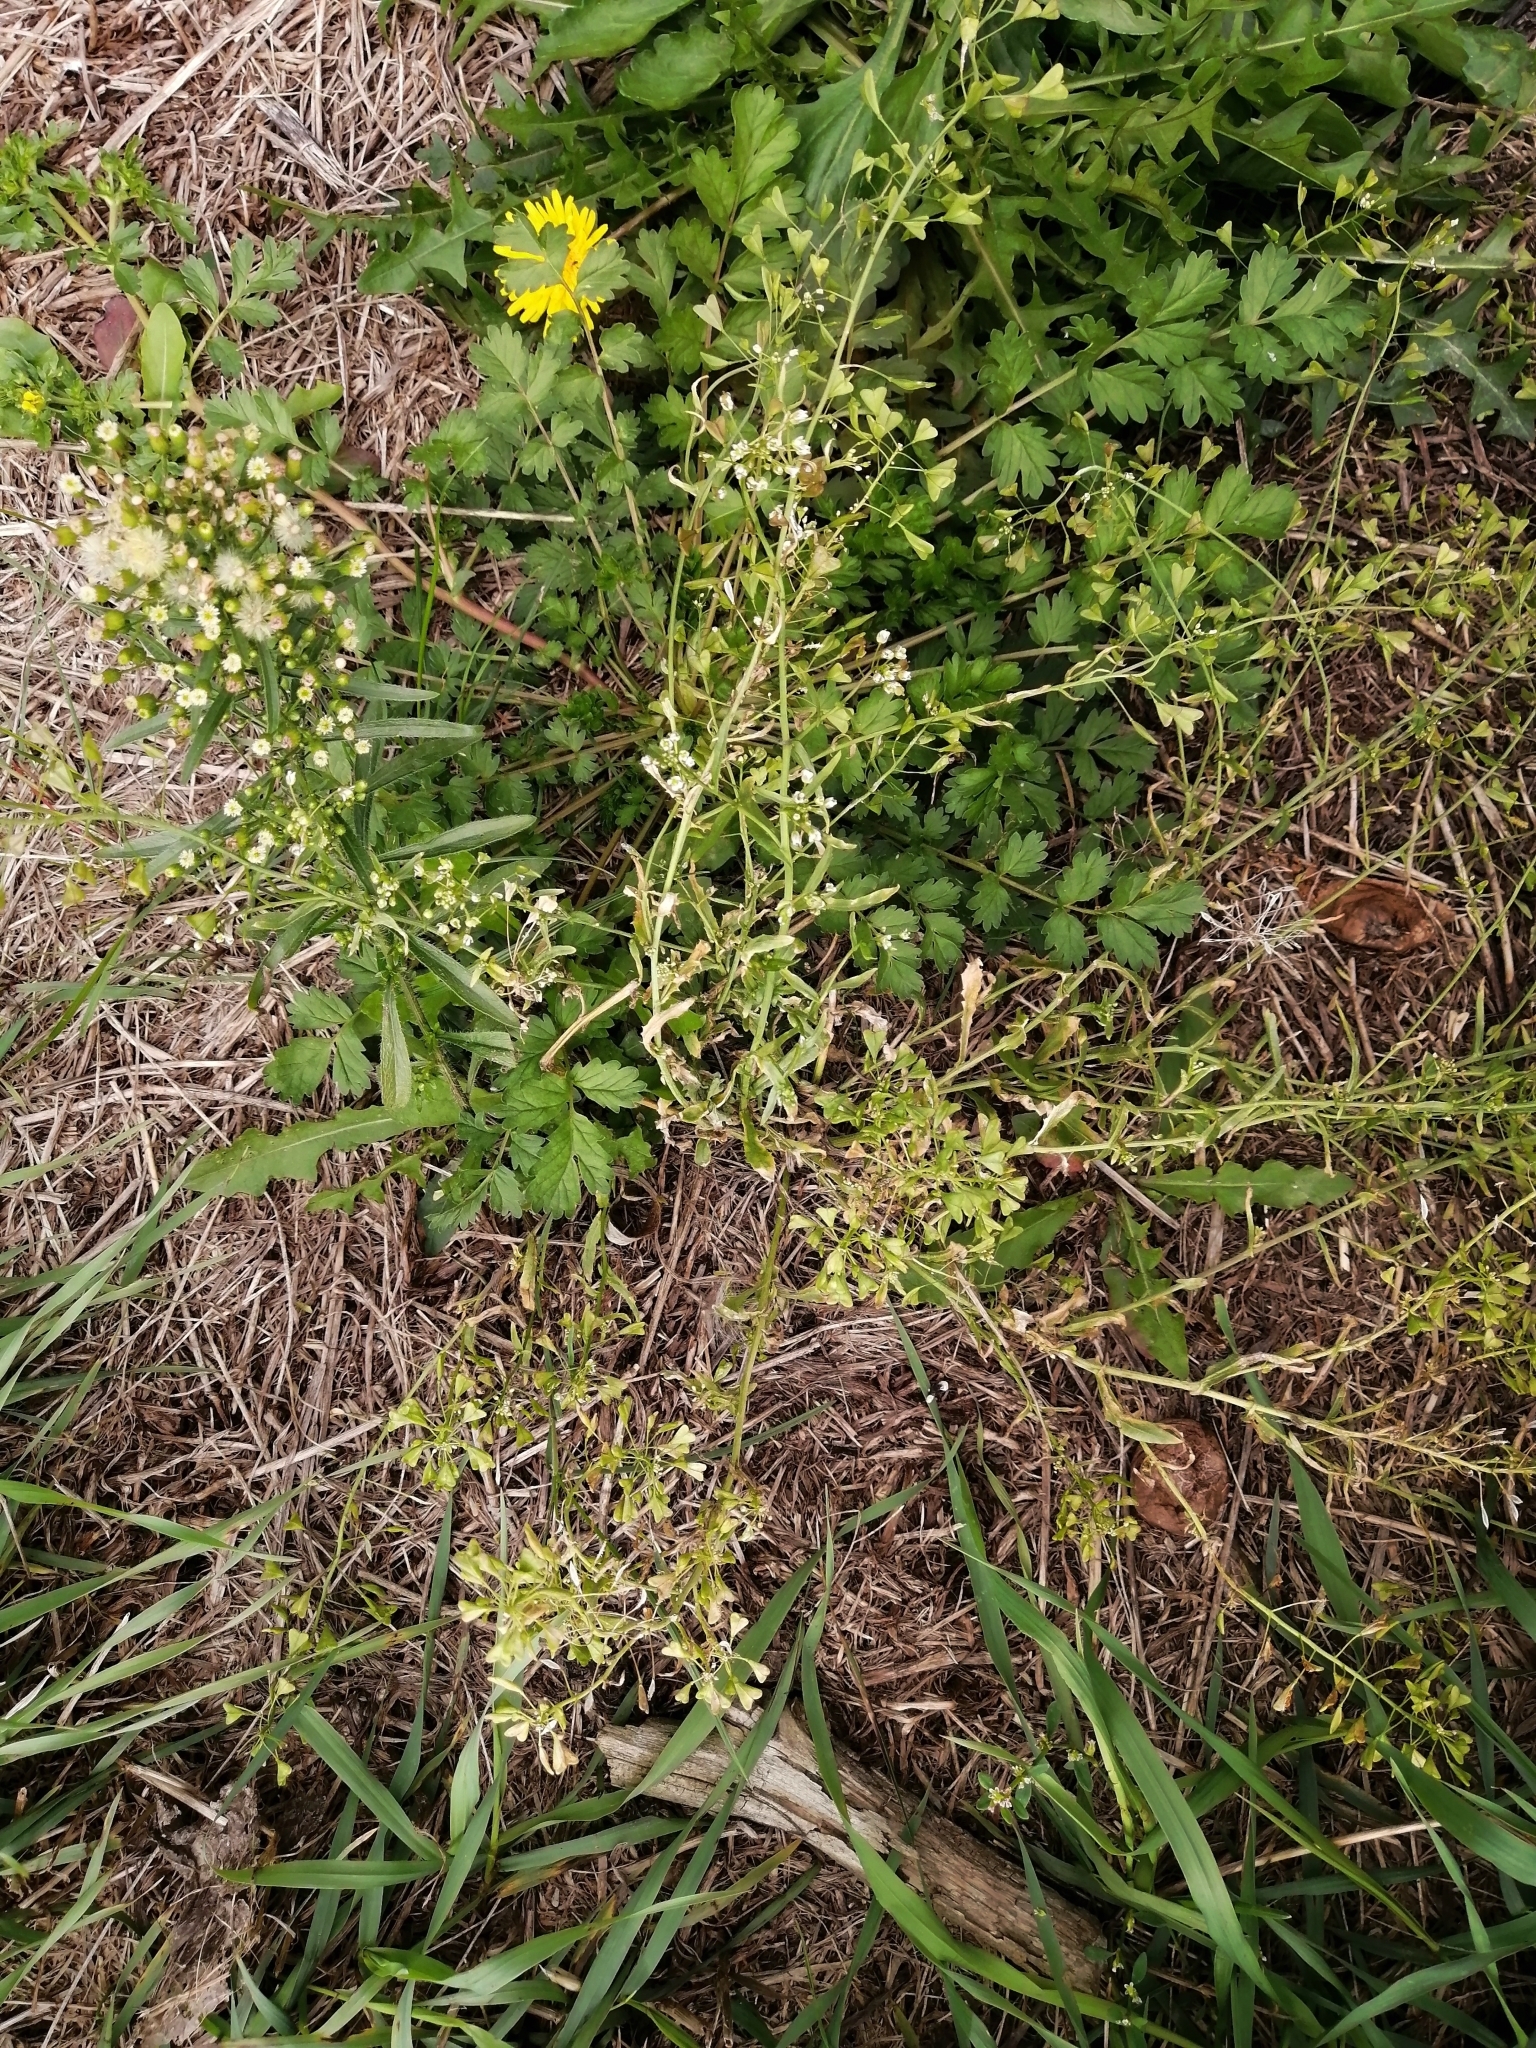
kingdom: Plantae
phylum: Tracheophyta
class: Magnoliopsida
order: Brassicales
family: Brassicaceae
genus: Capsella
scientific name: Capsella bursa-pastoris
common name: Shepherd's purse
